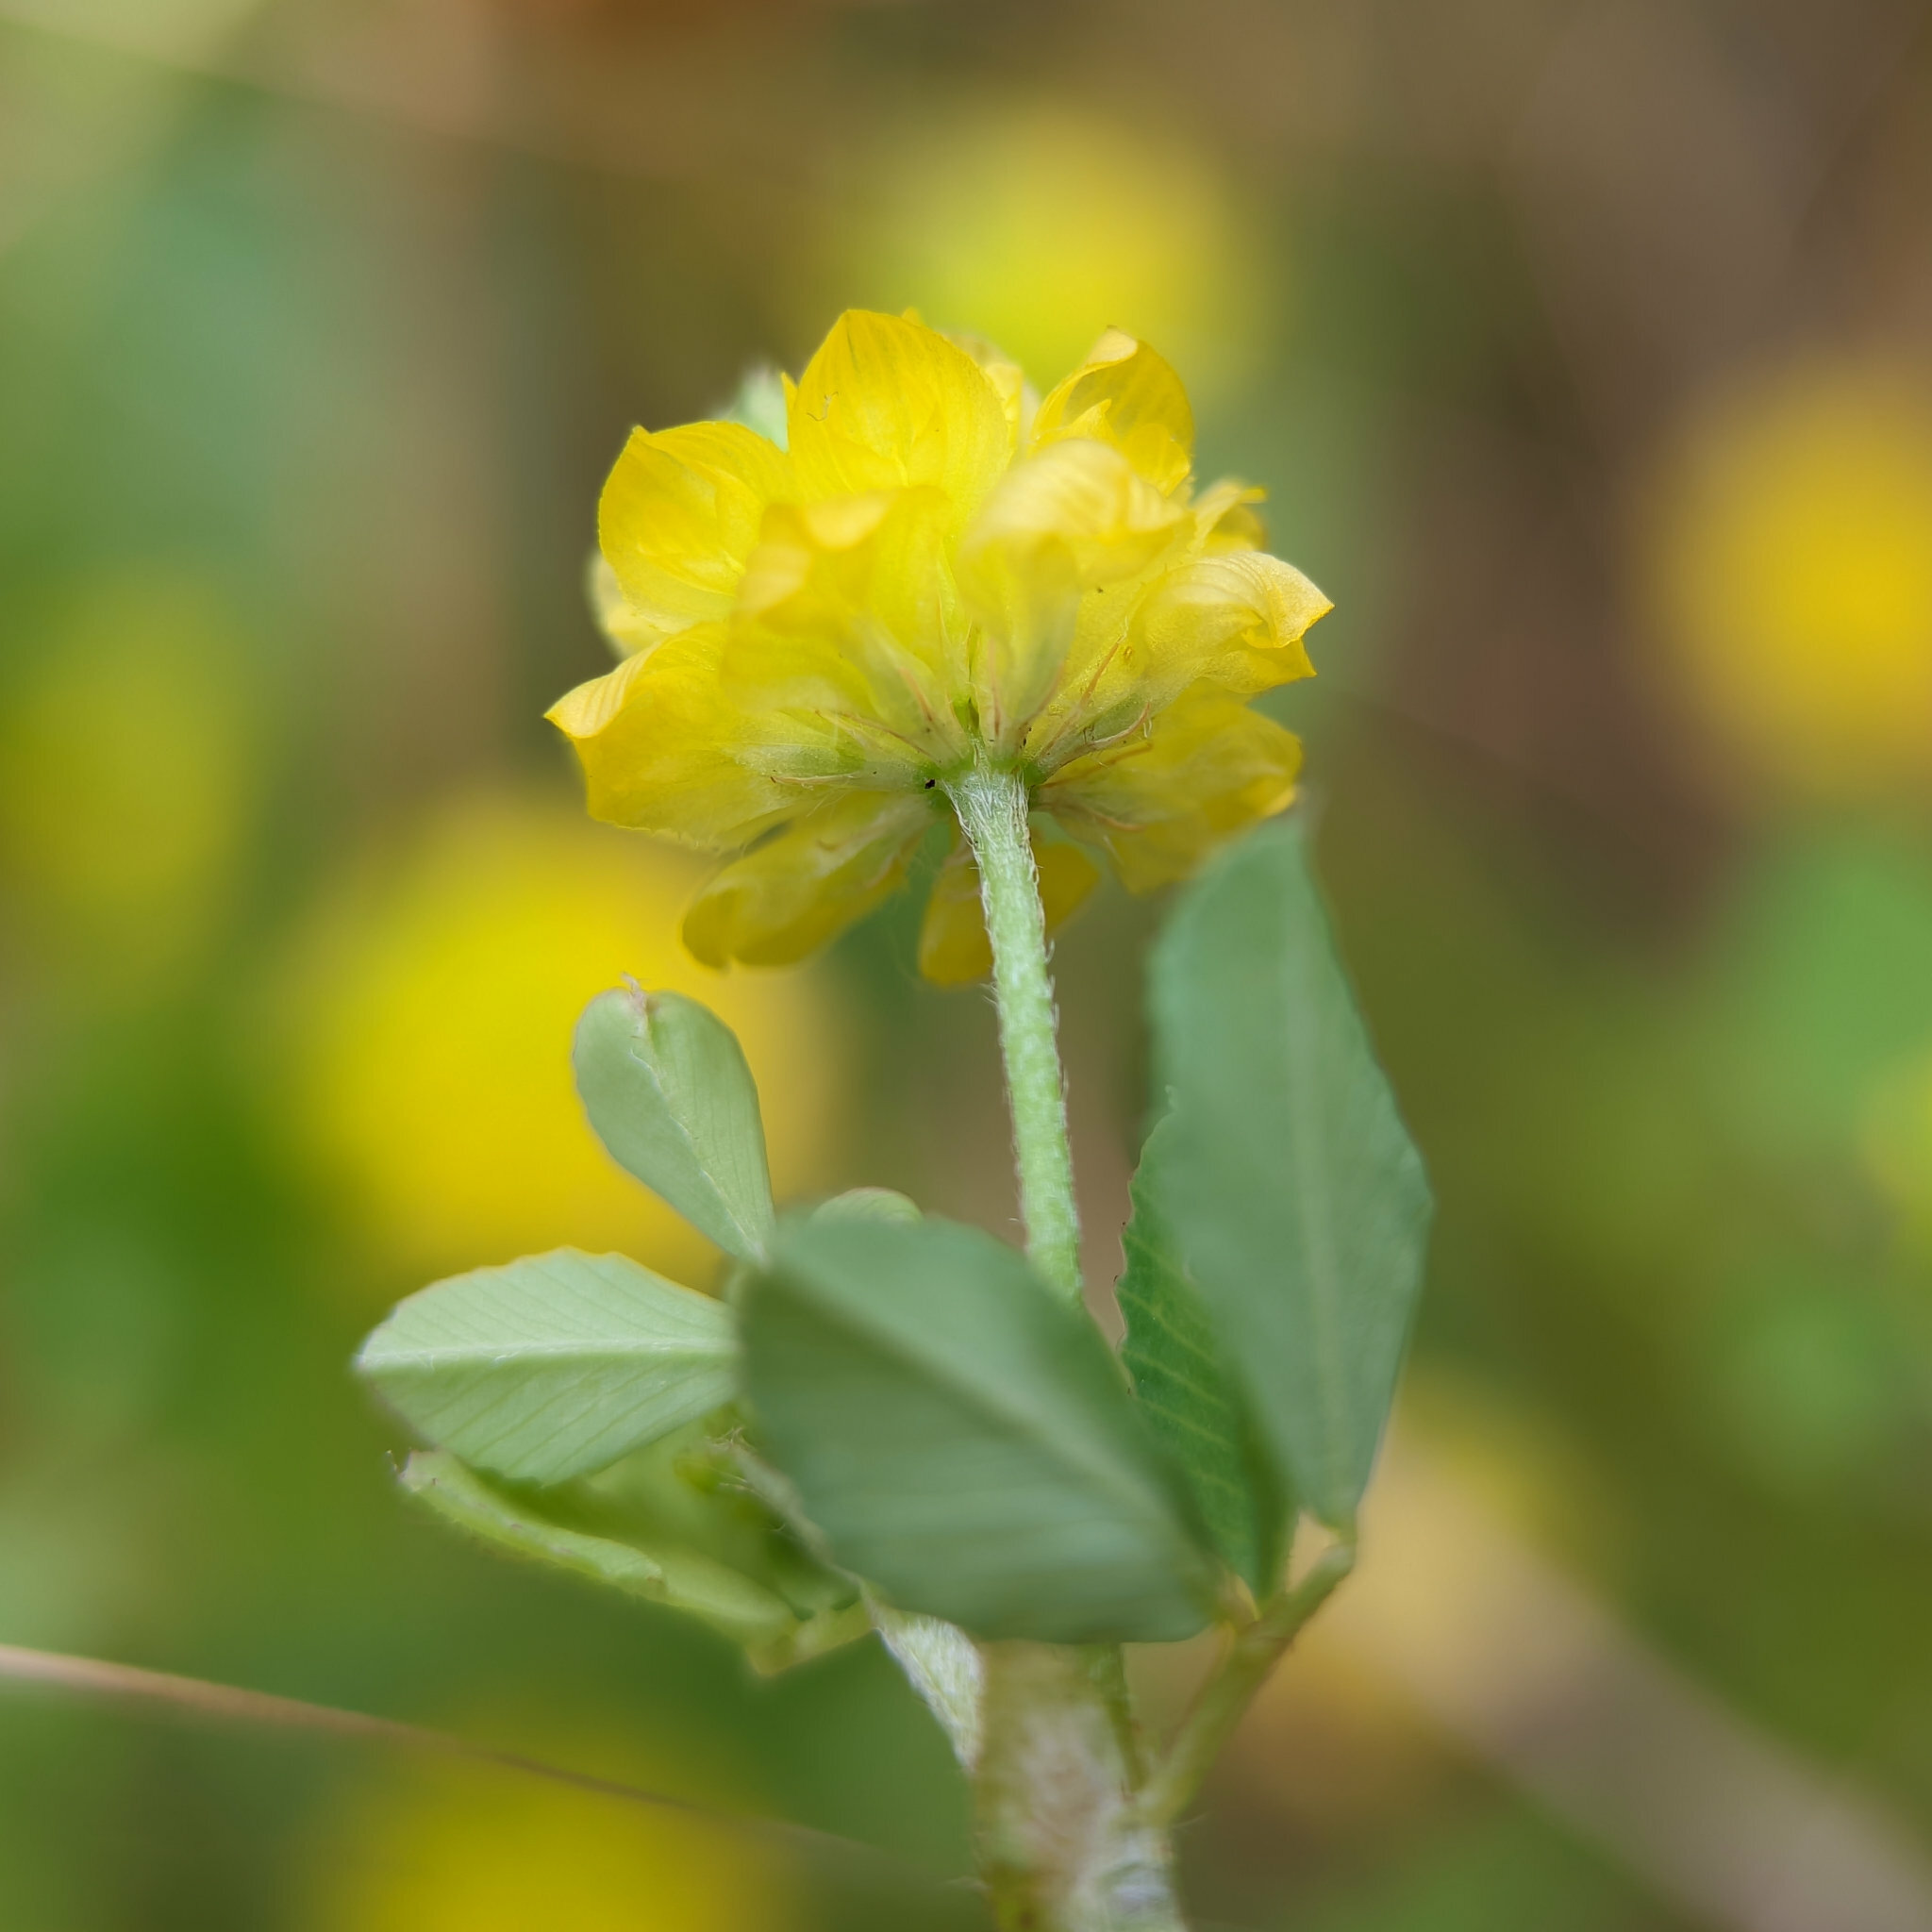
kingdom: Plantae
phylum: Tracheophyta
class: Magnoliopsida
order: Fabales
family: Fabaceae
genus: Trifolium
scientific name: Trifolium campestre
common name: Field clover
